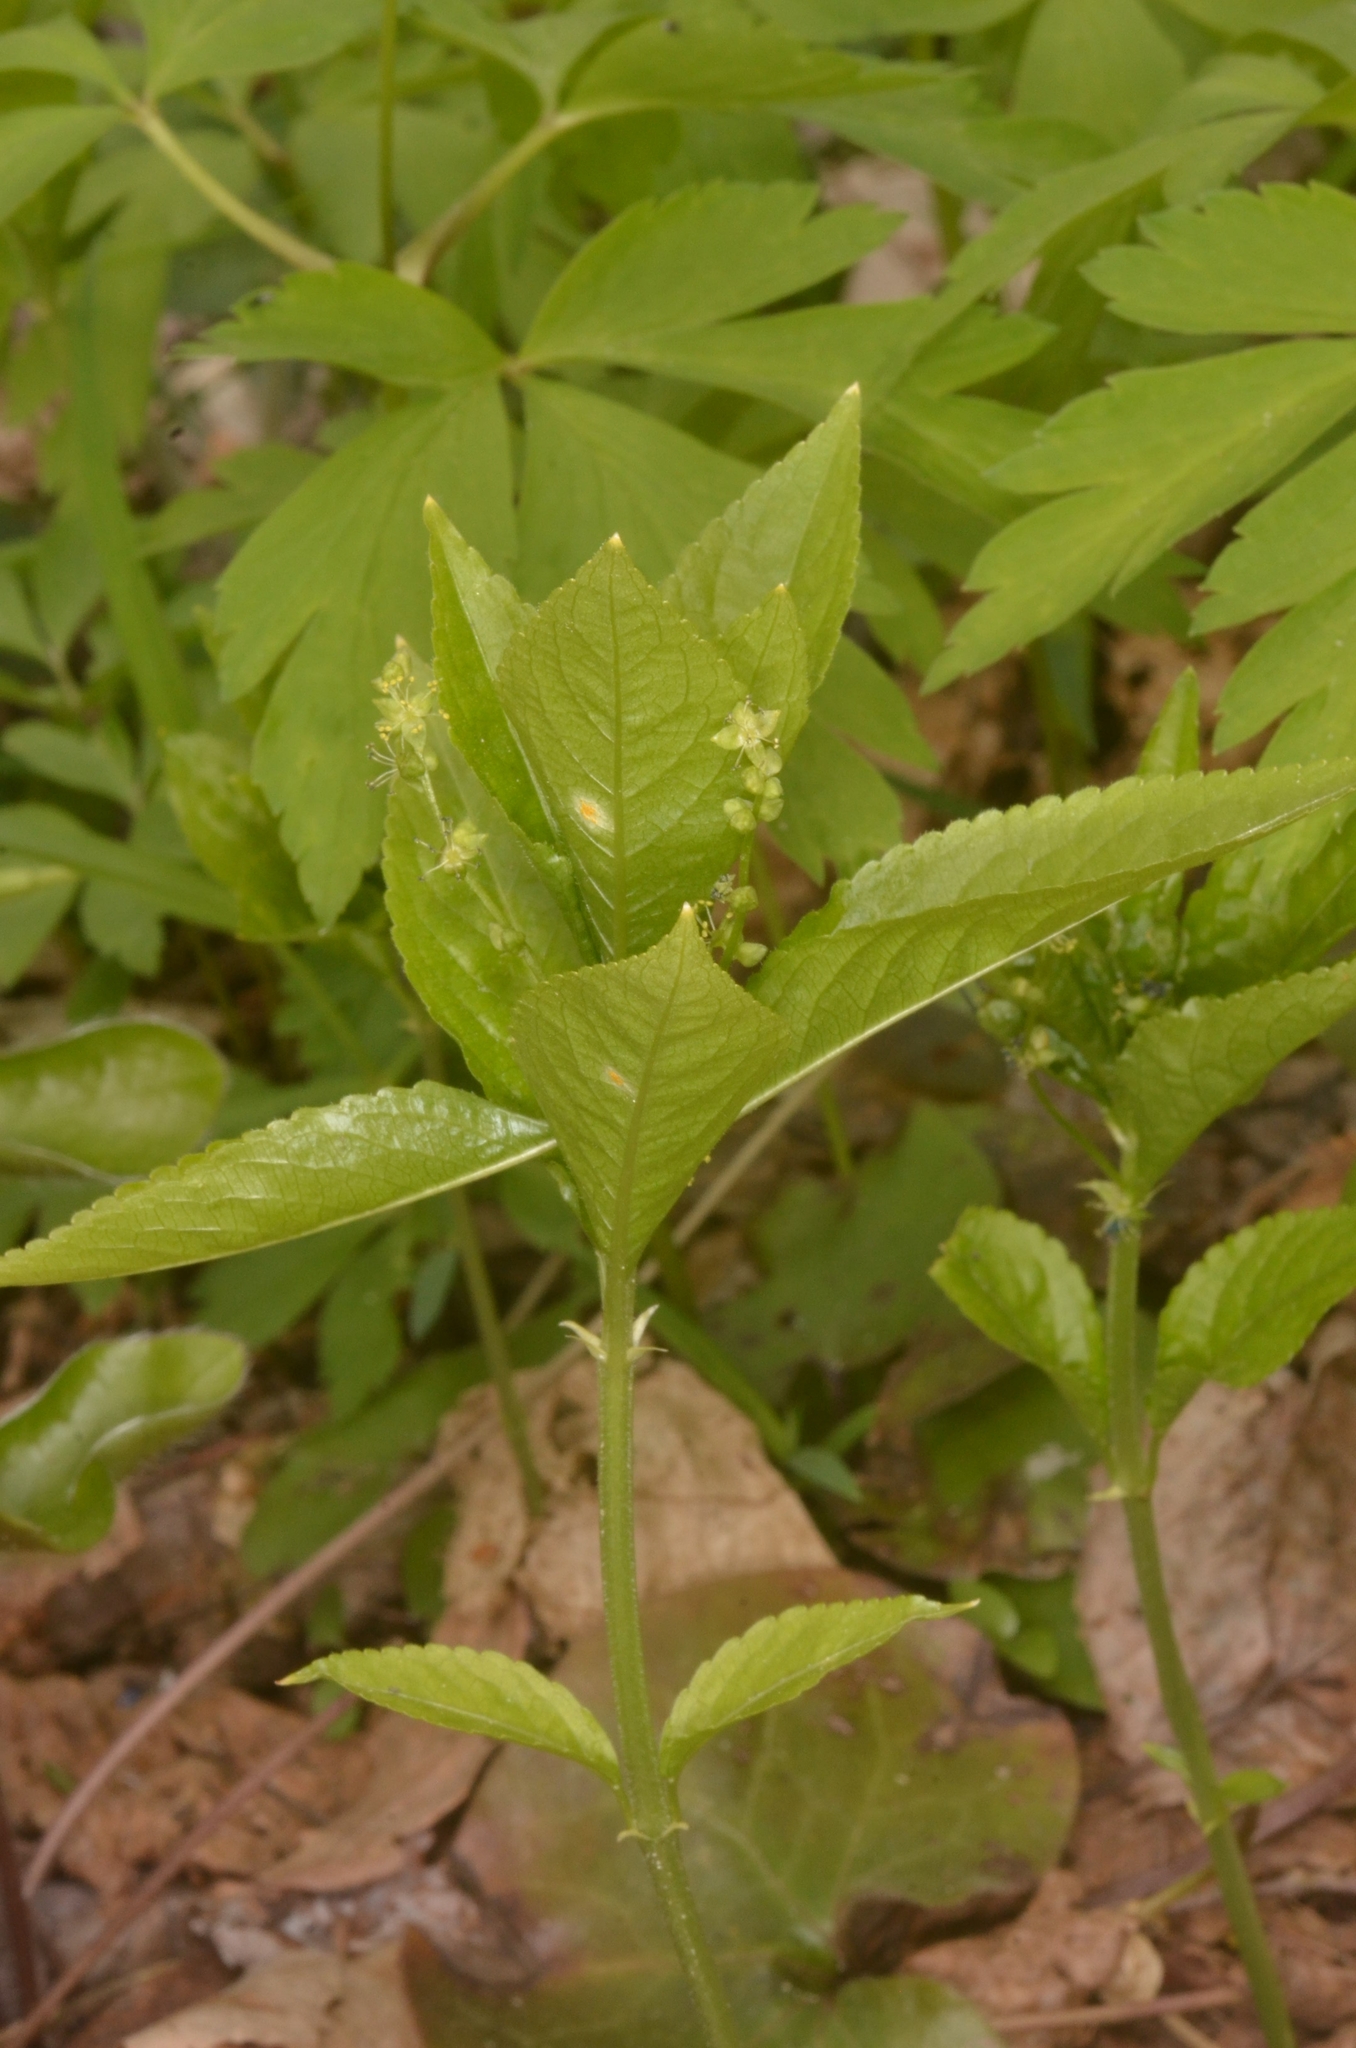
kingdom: Plantae
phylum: Tracheophyta
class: Magnoliopsida
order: Malpighiales
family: Euphorbiaceae
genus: Mercurialis
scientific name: Mercurialis perennis
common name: Dog mercury
